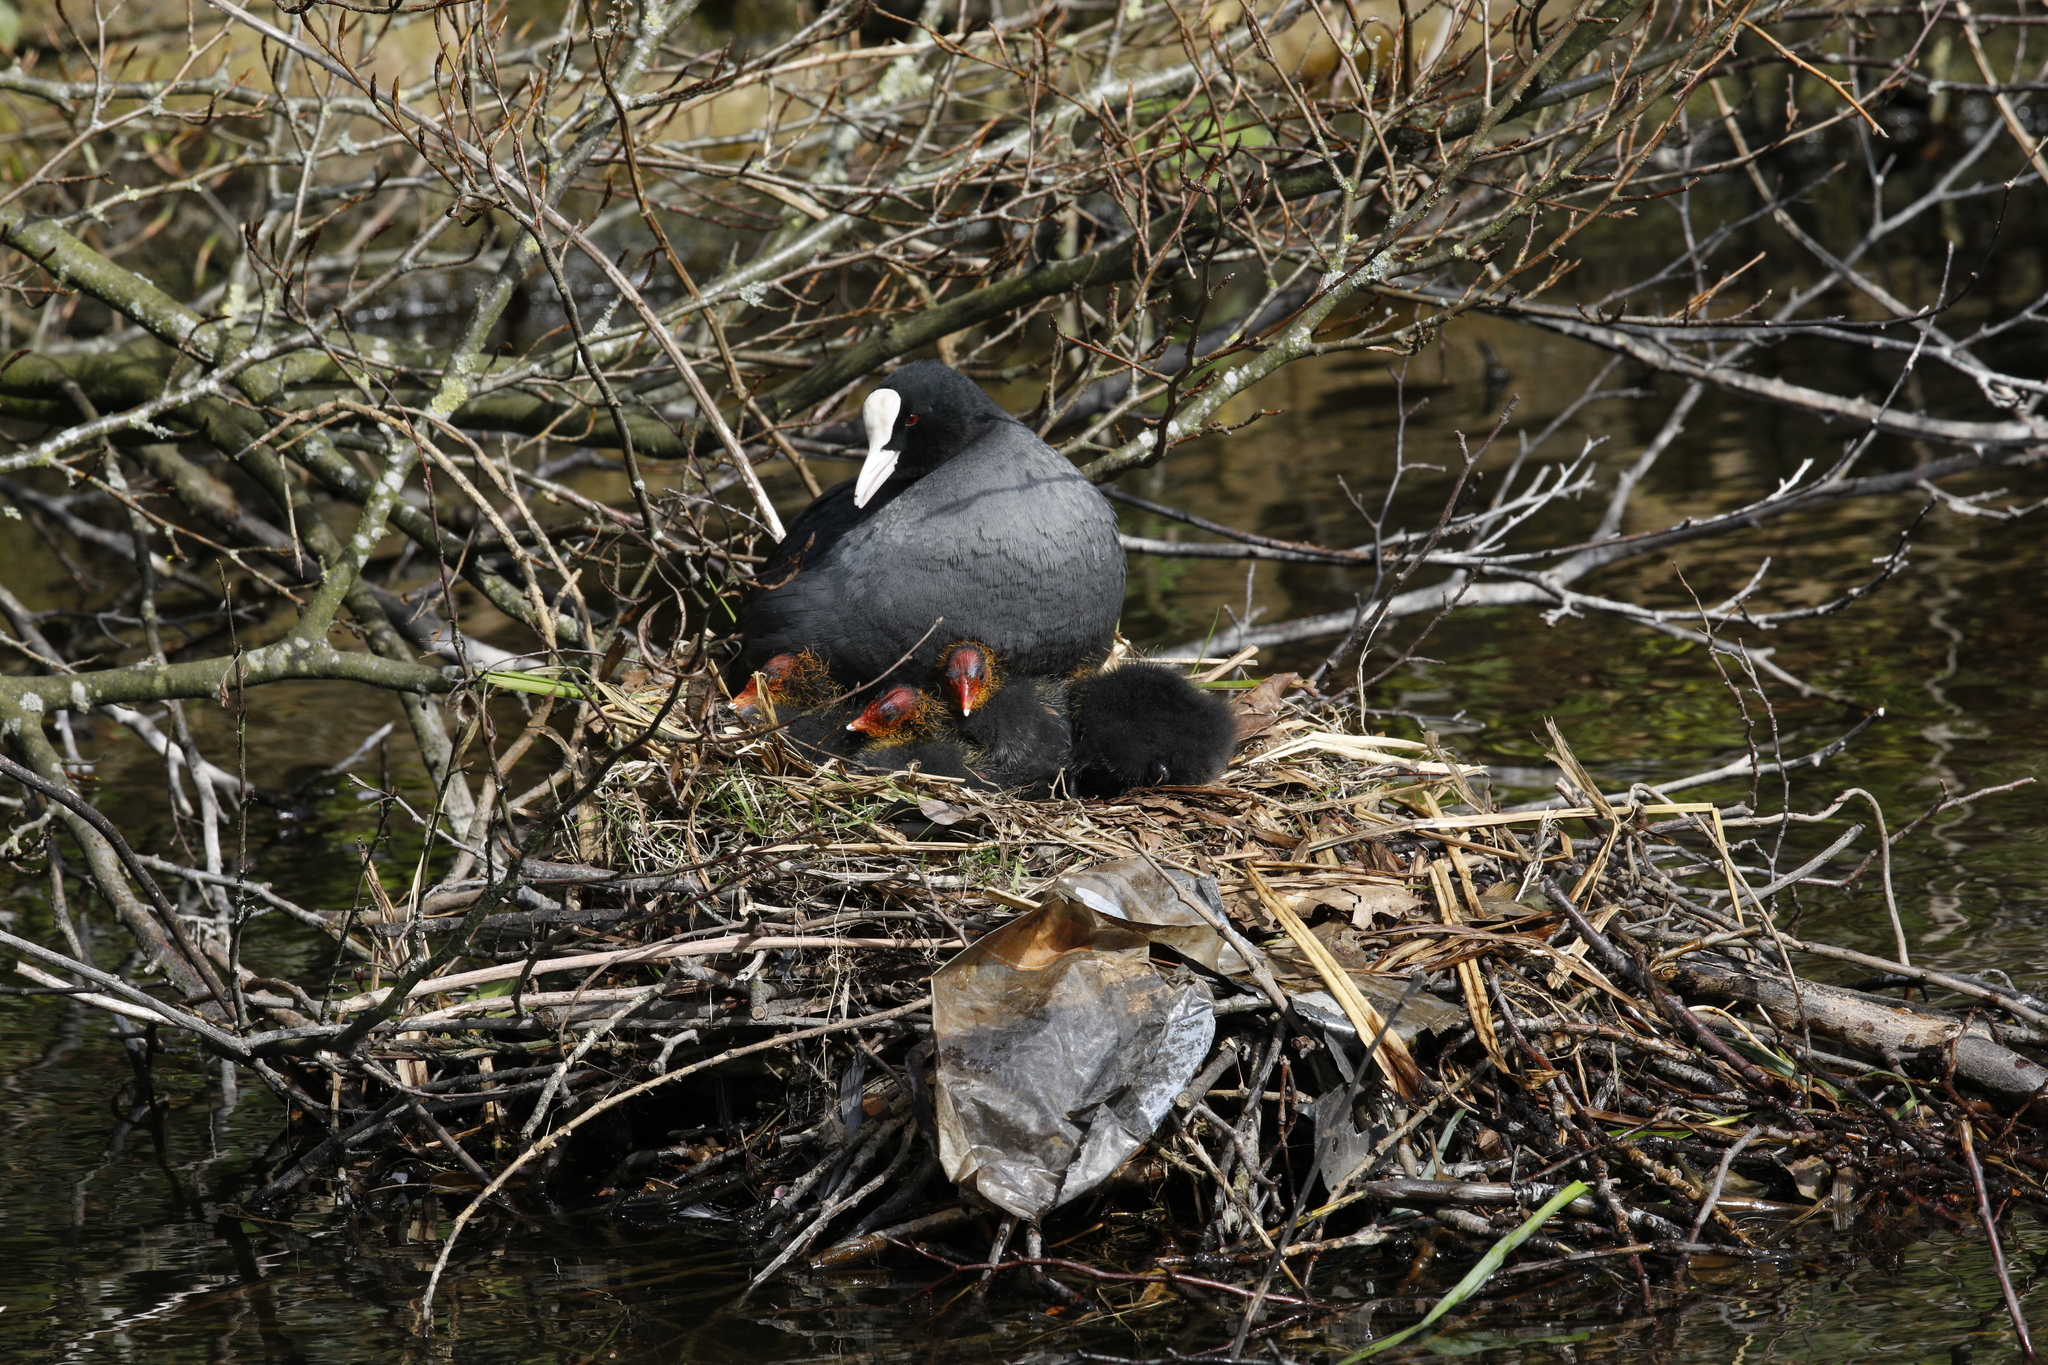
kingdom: Animalia
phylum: Chordata
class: Aves
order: Gruiformes
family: Rallidae
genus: Fulica
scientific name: Fulica atra
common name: Eurasian coot
